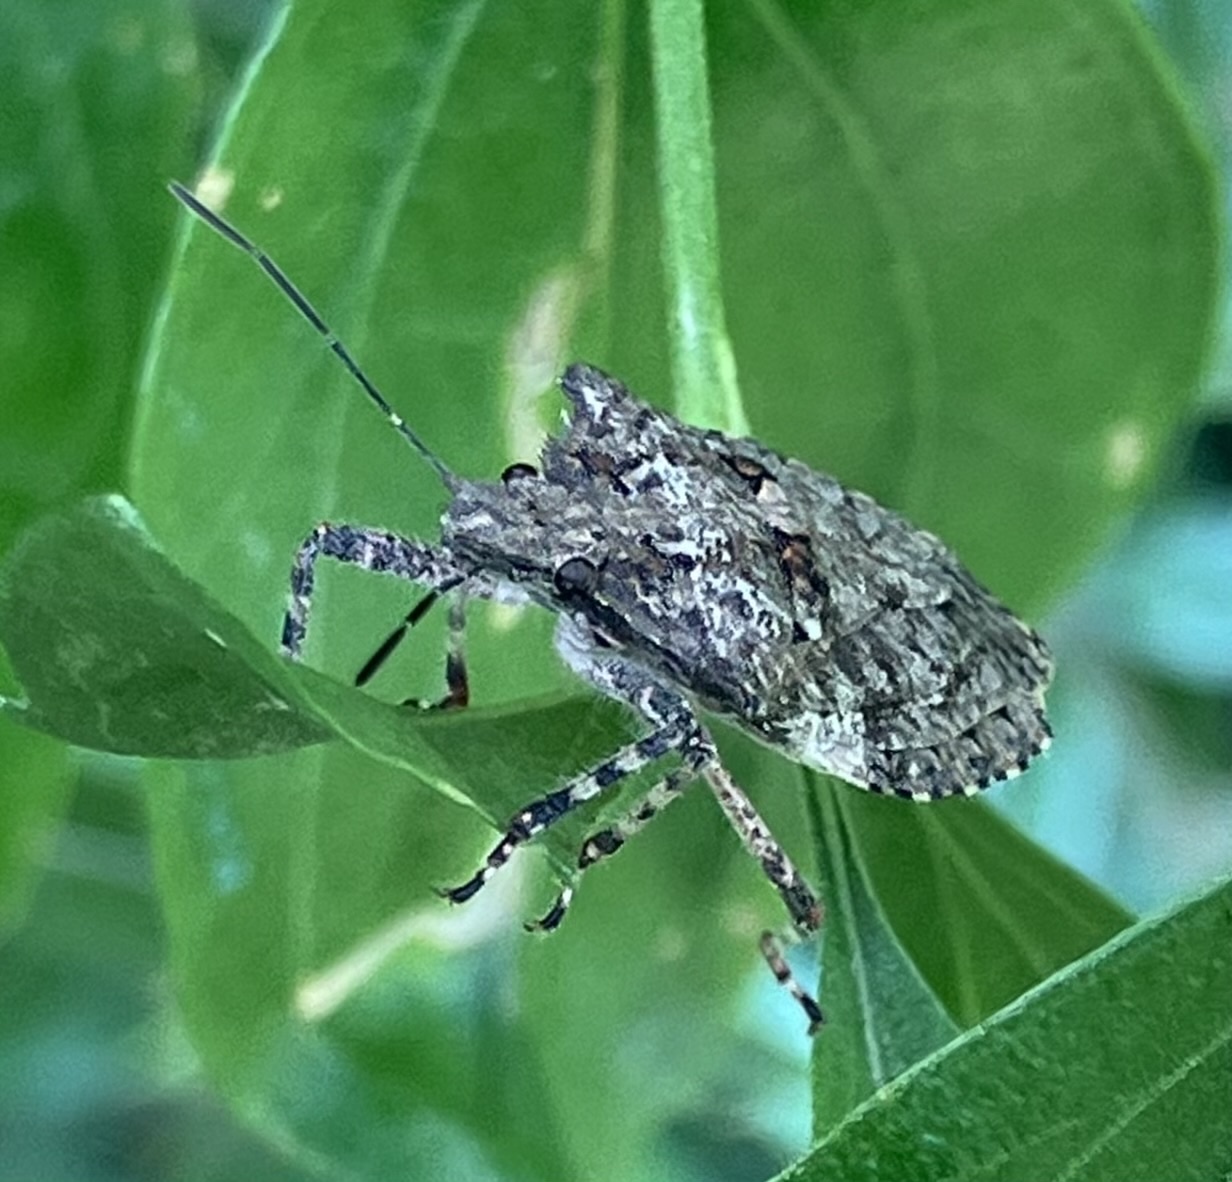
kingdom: Animalia
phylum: Arthropoda
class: Insecta
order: Hemiptera
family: Pentatomidae
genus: Brochymena
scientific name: Brochymena arborea
